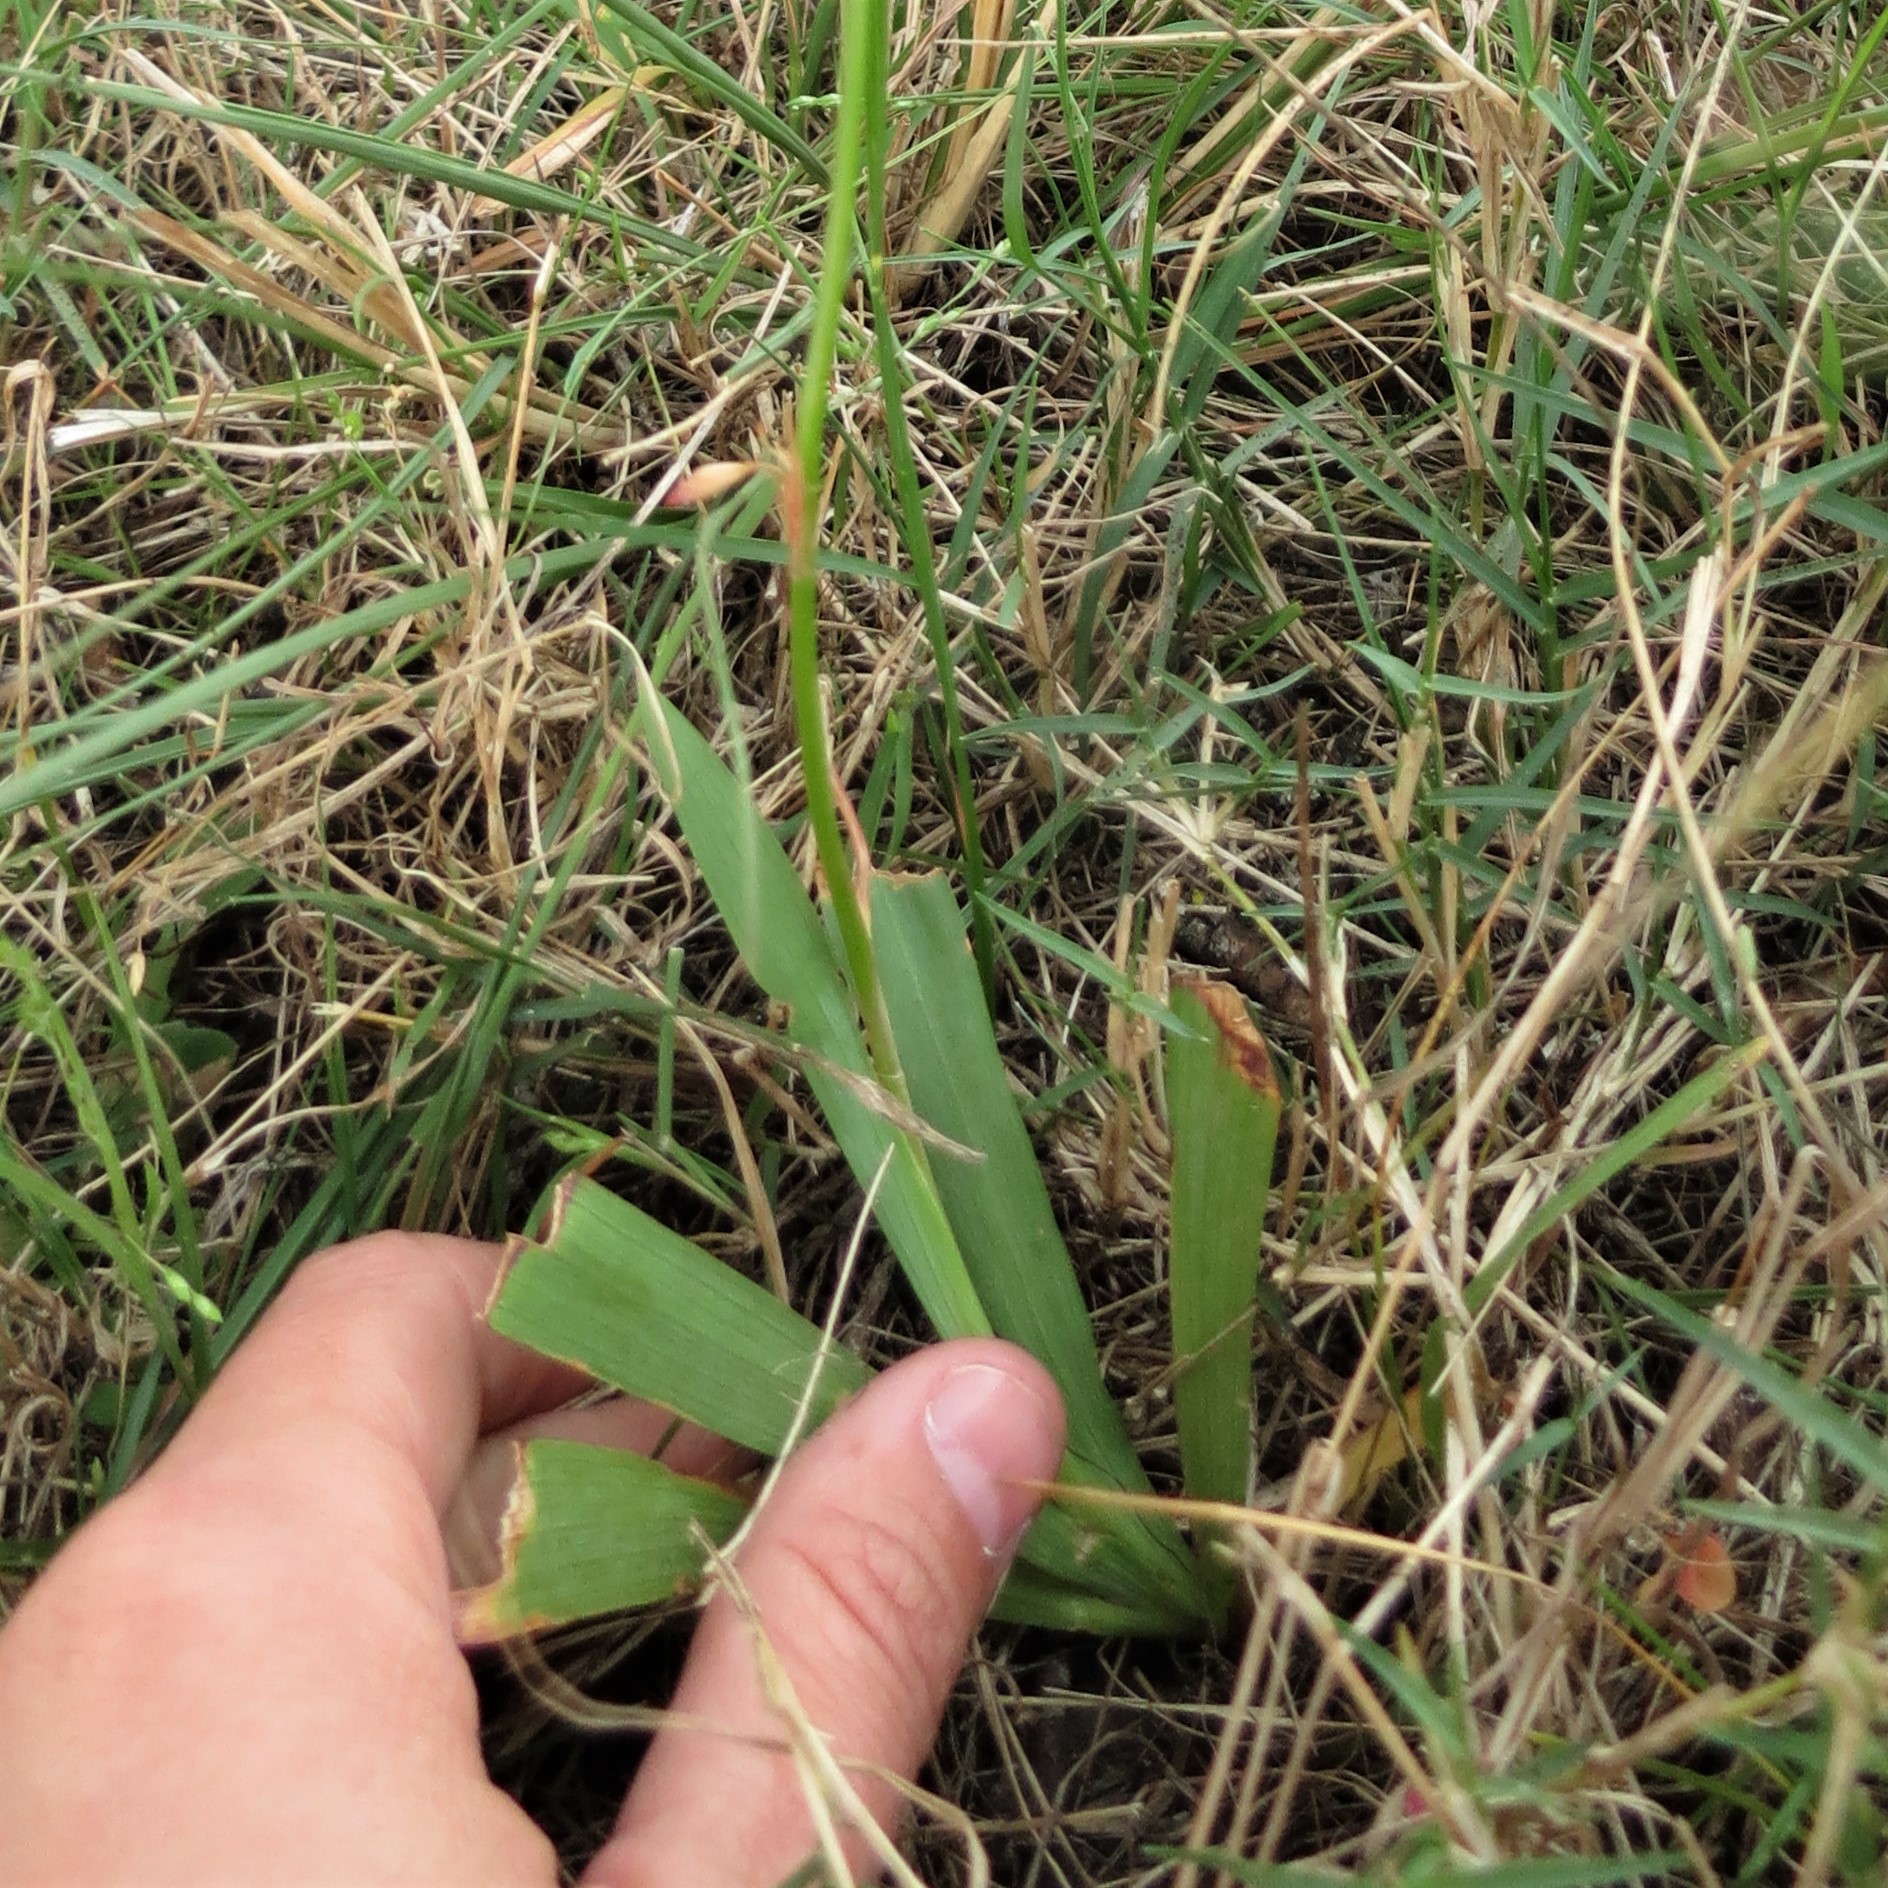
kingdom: Plantae
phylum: Tracheophyta
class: Liliopsida
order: Asparagales
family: Iridaceae
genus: Tritonia
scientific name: Tritonia crocata
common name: Flame-freesia
